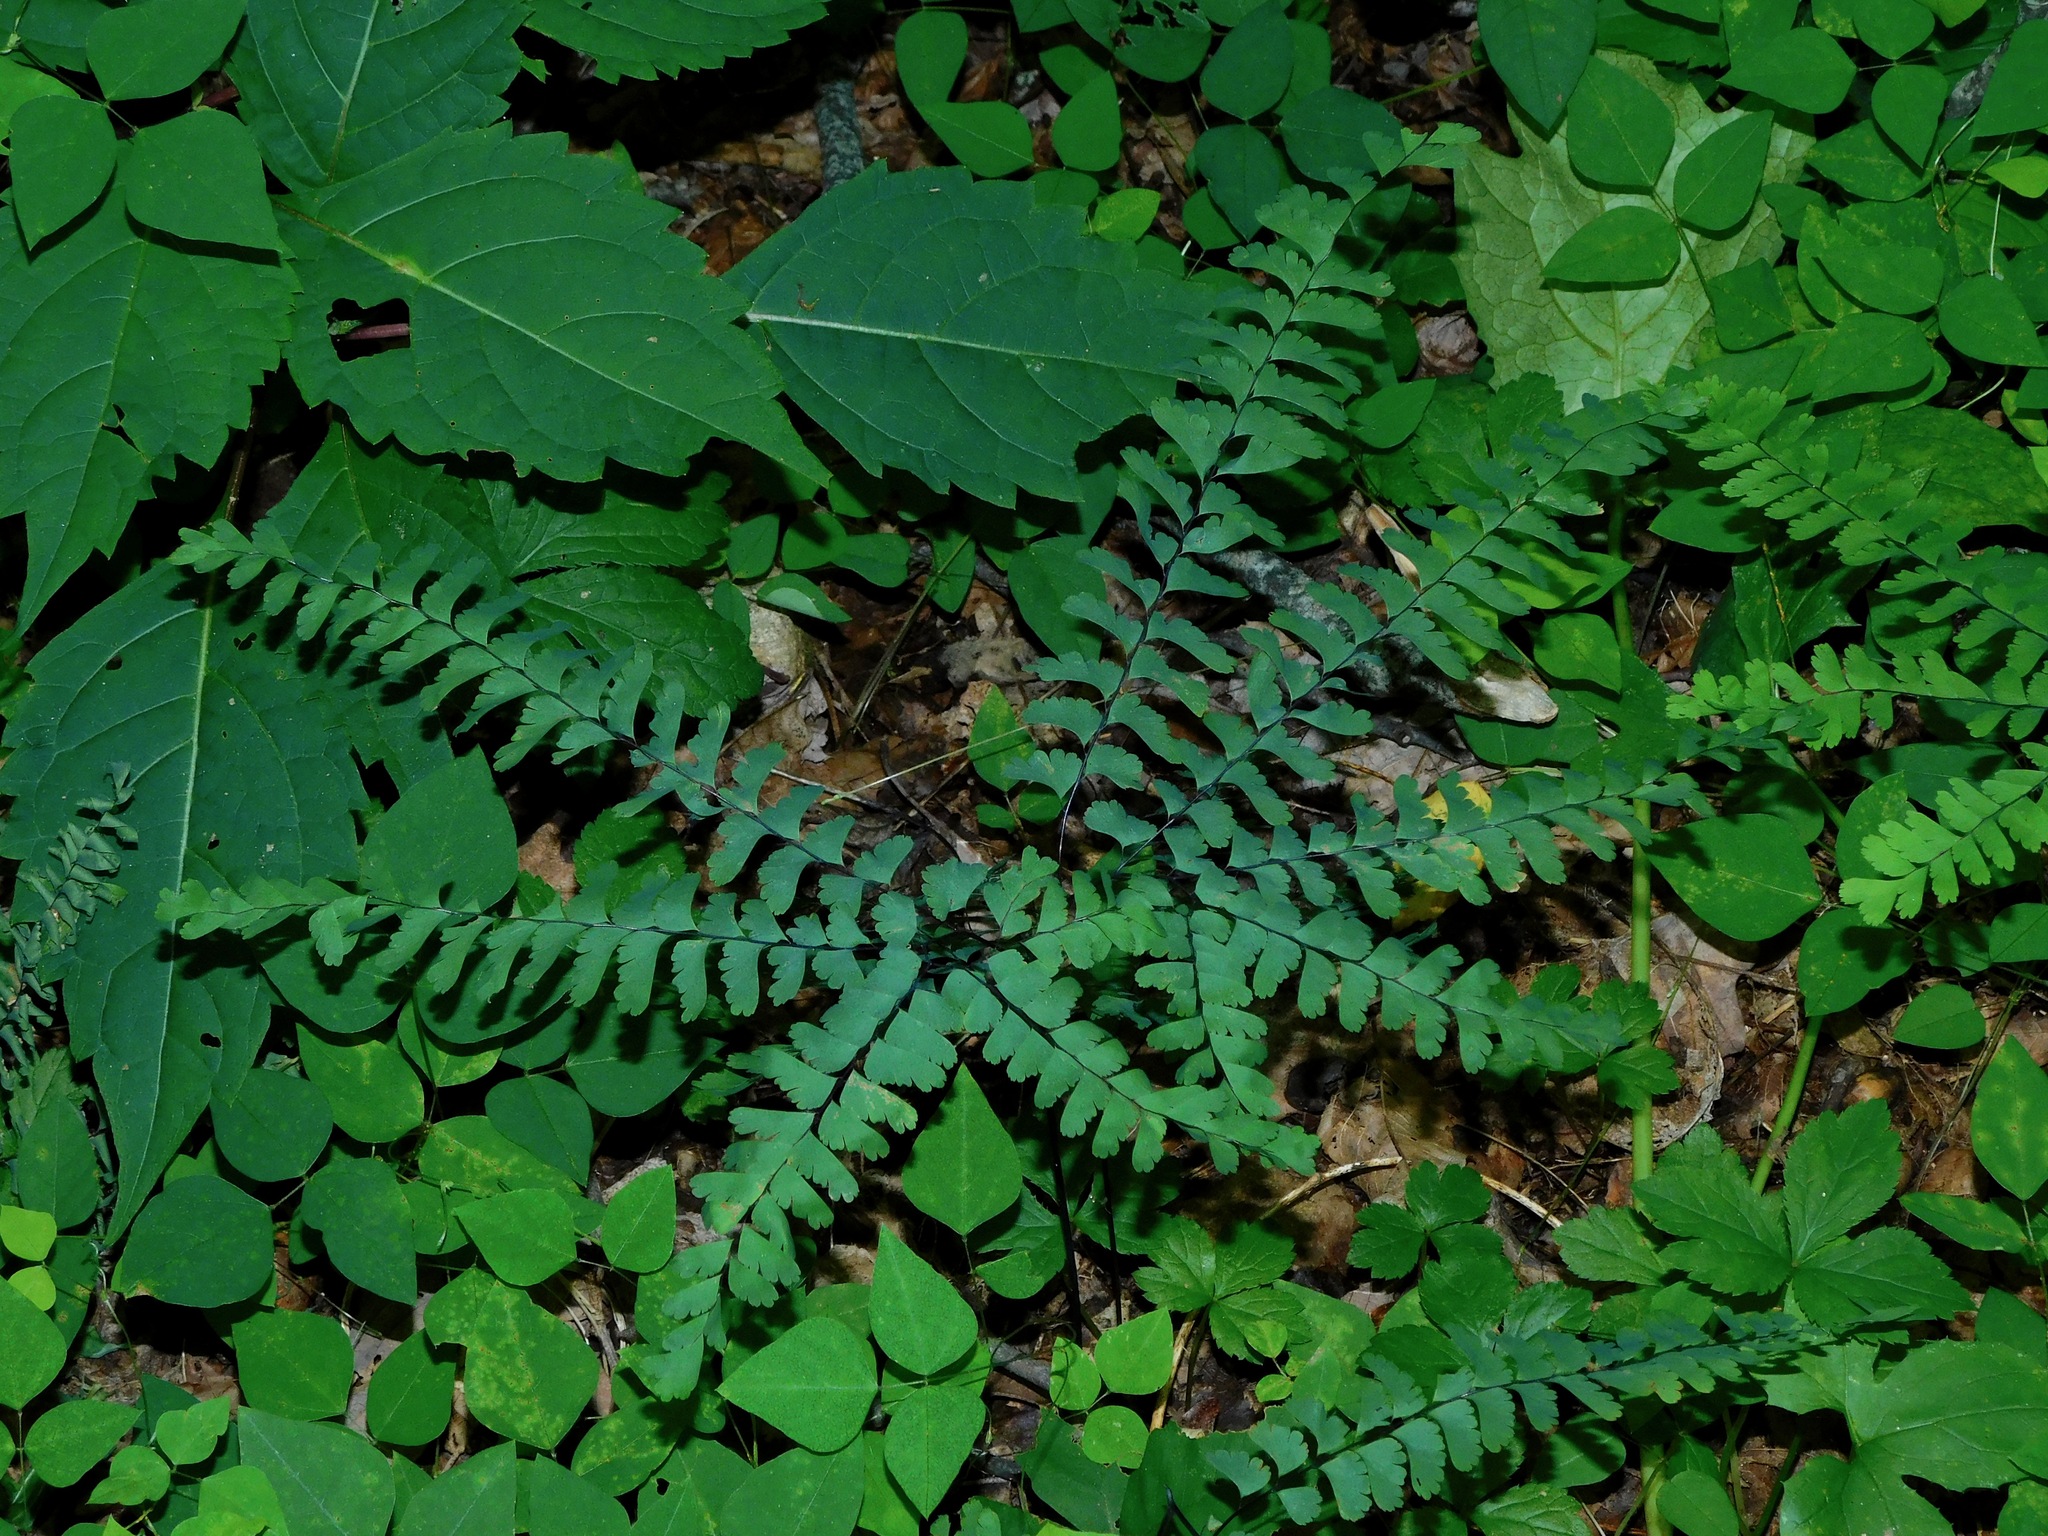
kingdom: Plantae
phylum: Tracheophyta
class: Polypodiopsida
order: Polypodiales
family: Pteridaceae
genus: Adiantum
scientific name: Adiantum pedatum
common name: Five-finger fern
